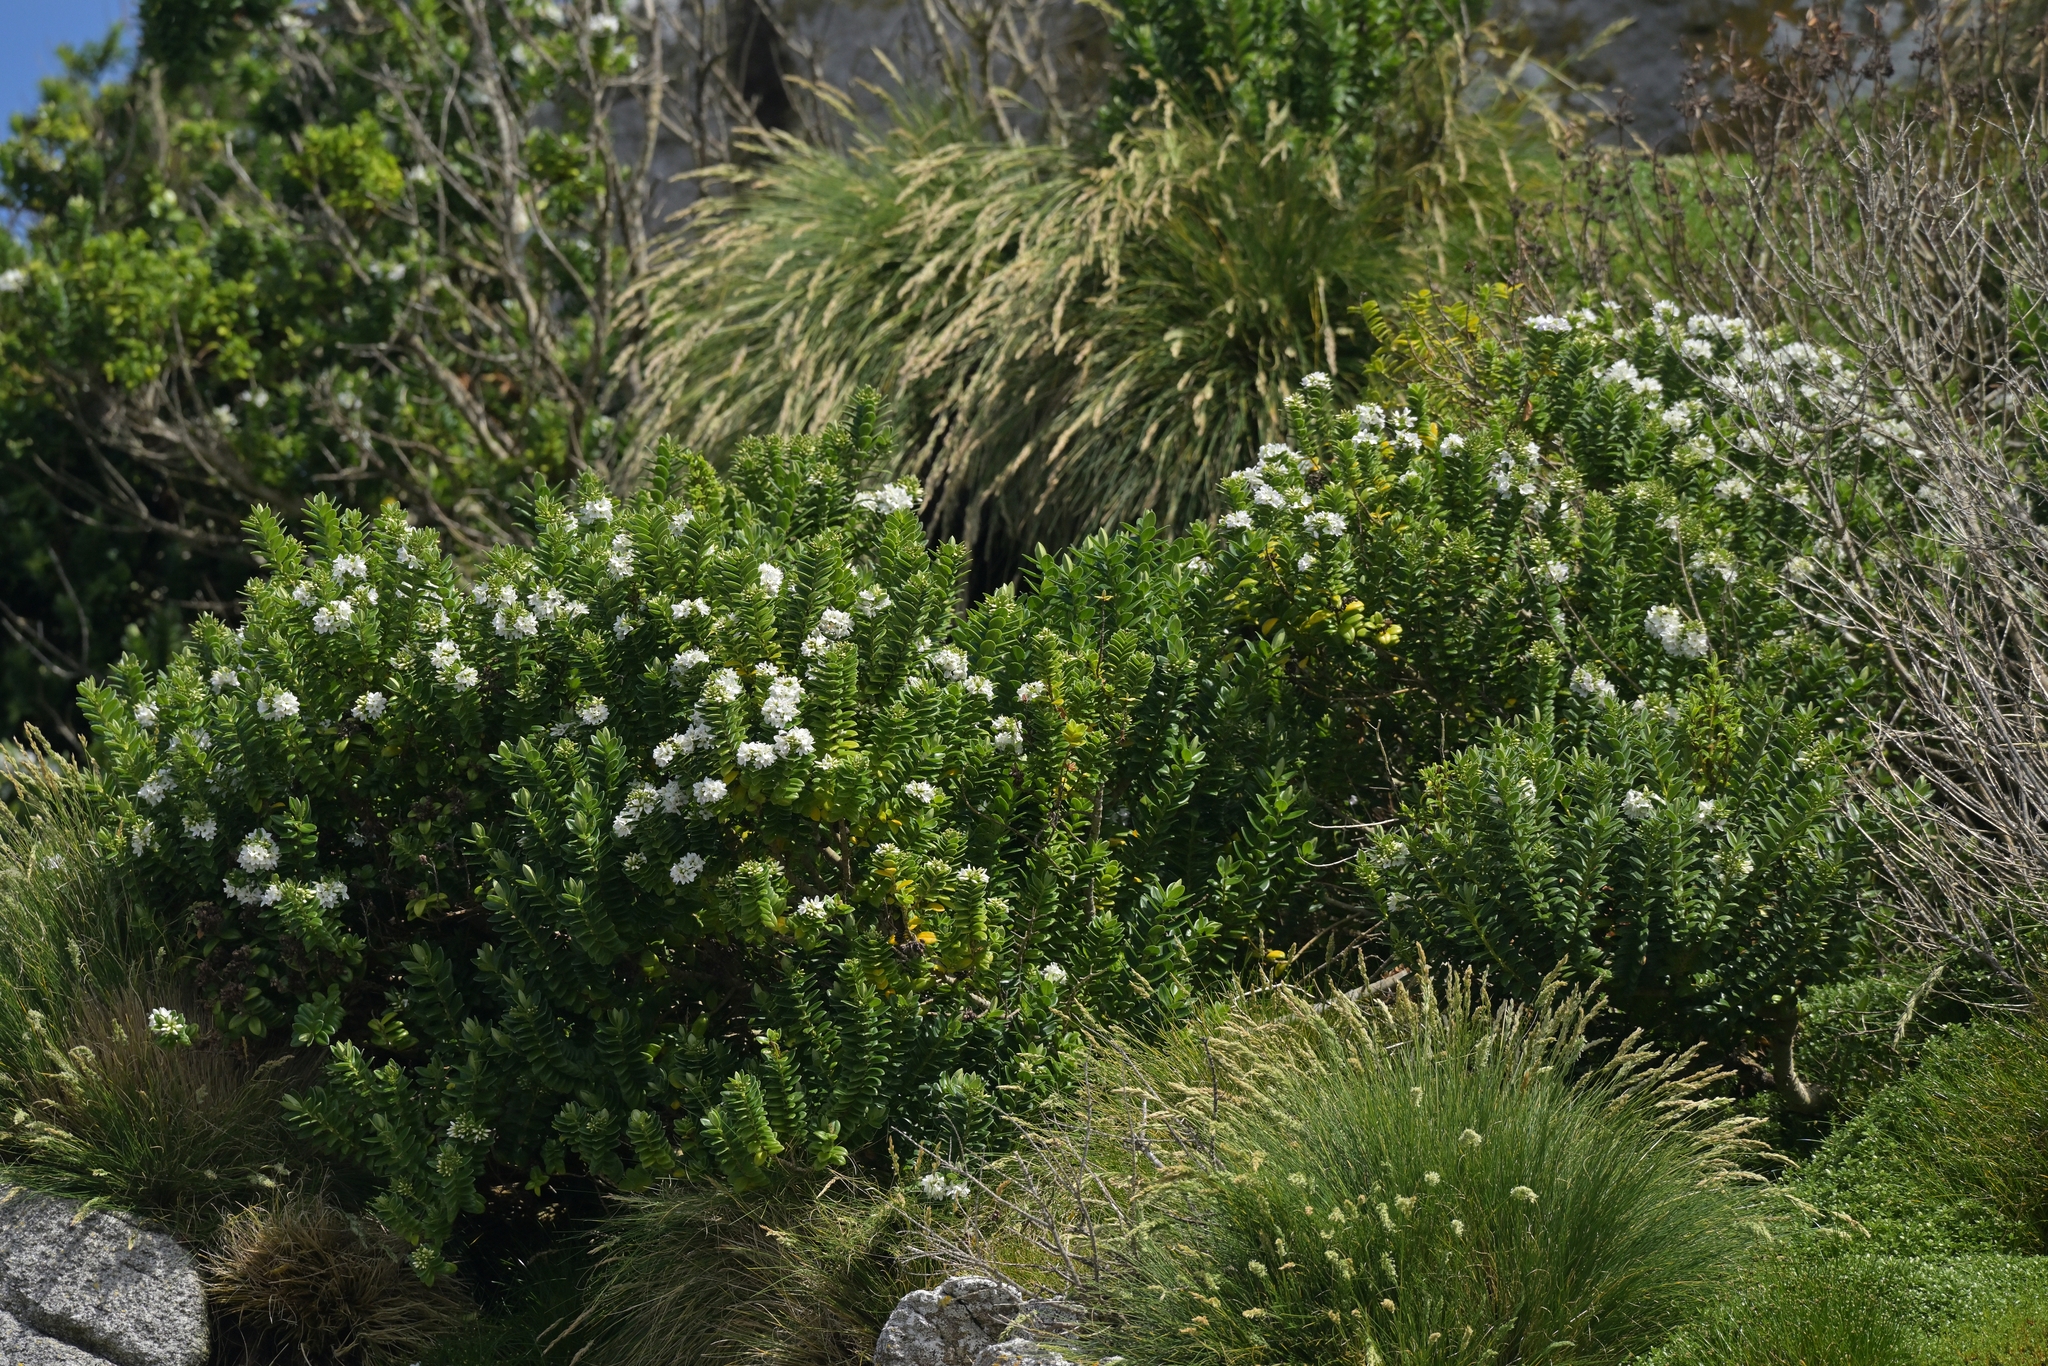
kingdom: Plantae
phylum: Tracheophyta
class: Magnoliopsida
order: Lamiales
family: Plantaginaceae
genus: Veronica
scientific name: Veronica elliptica
